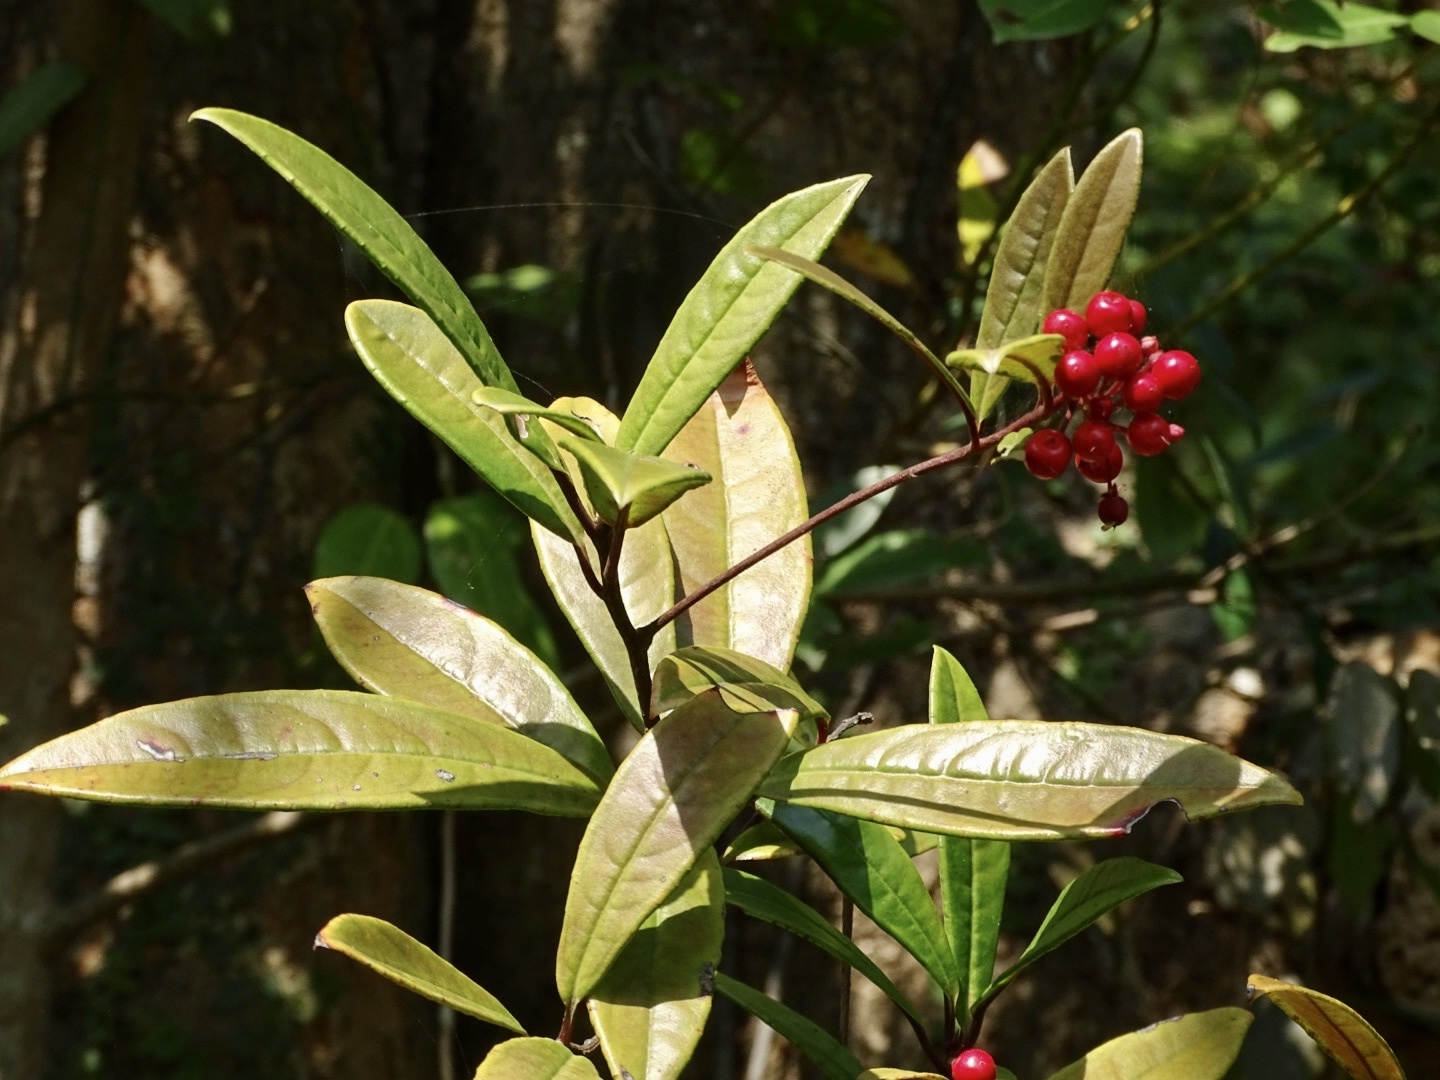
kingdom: Plantae
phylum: Tracheophyta
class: Magnoliopsida
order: Ericales
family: Primulaceae
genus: Ardisia
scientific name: Ardisia lindleyana
